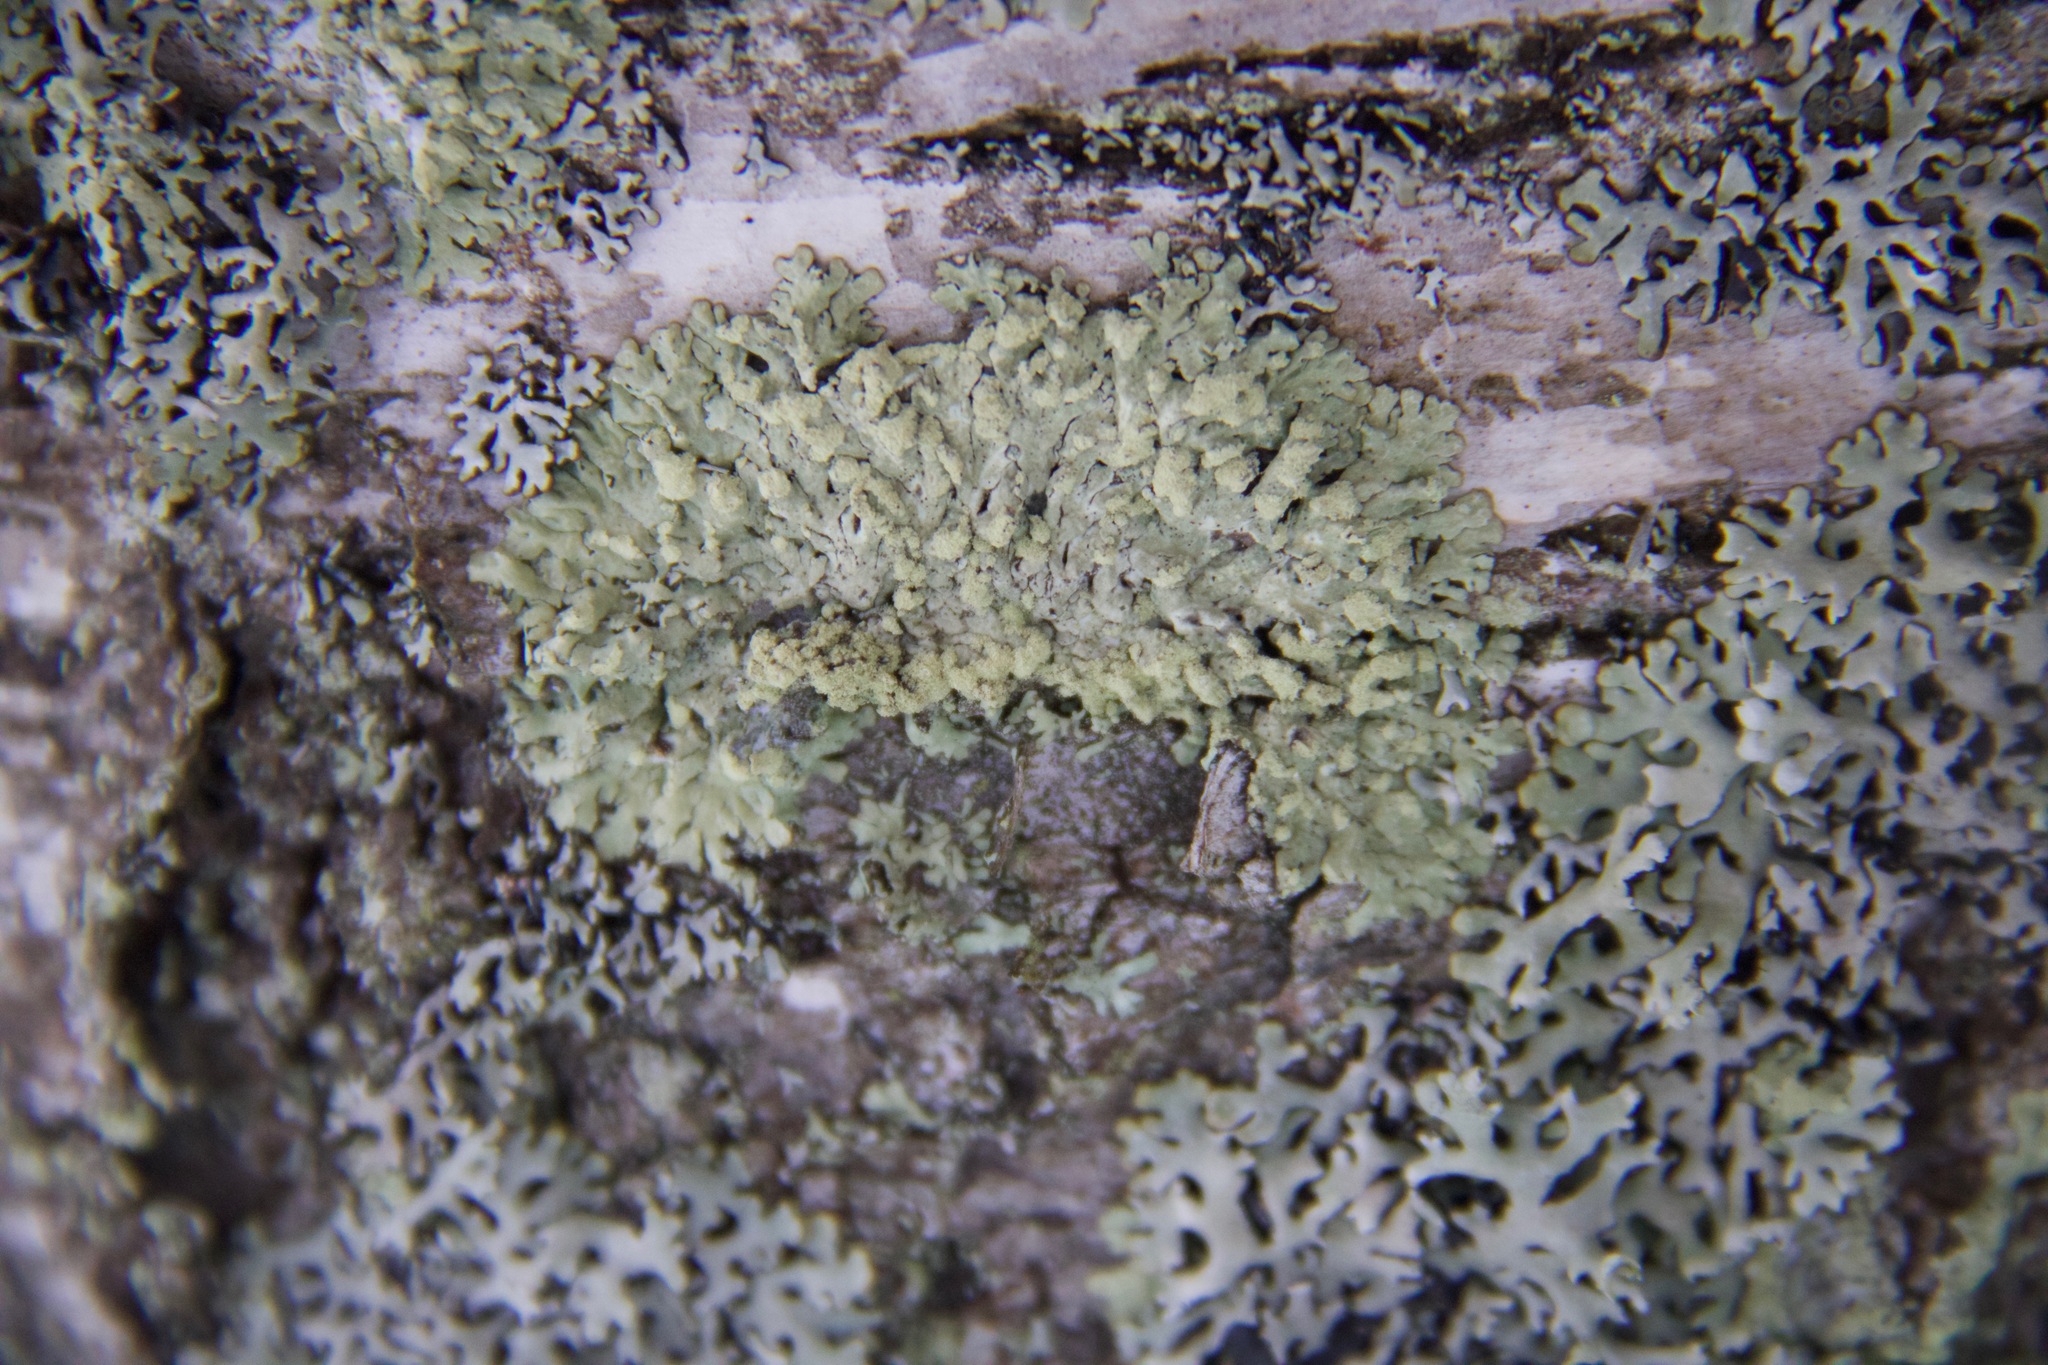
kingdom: Fungi
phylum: Ascomycota
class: Lecanoromycetes
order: Caliciales
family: Physciaceae
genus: Phaeophyscia
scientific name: Phaeophyscia orbicularis
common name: Mealy shadow lichen
